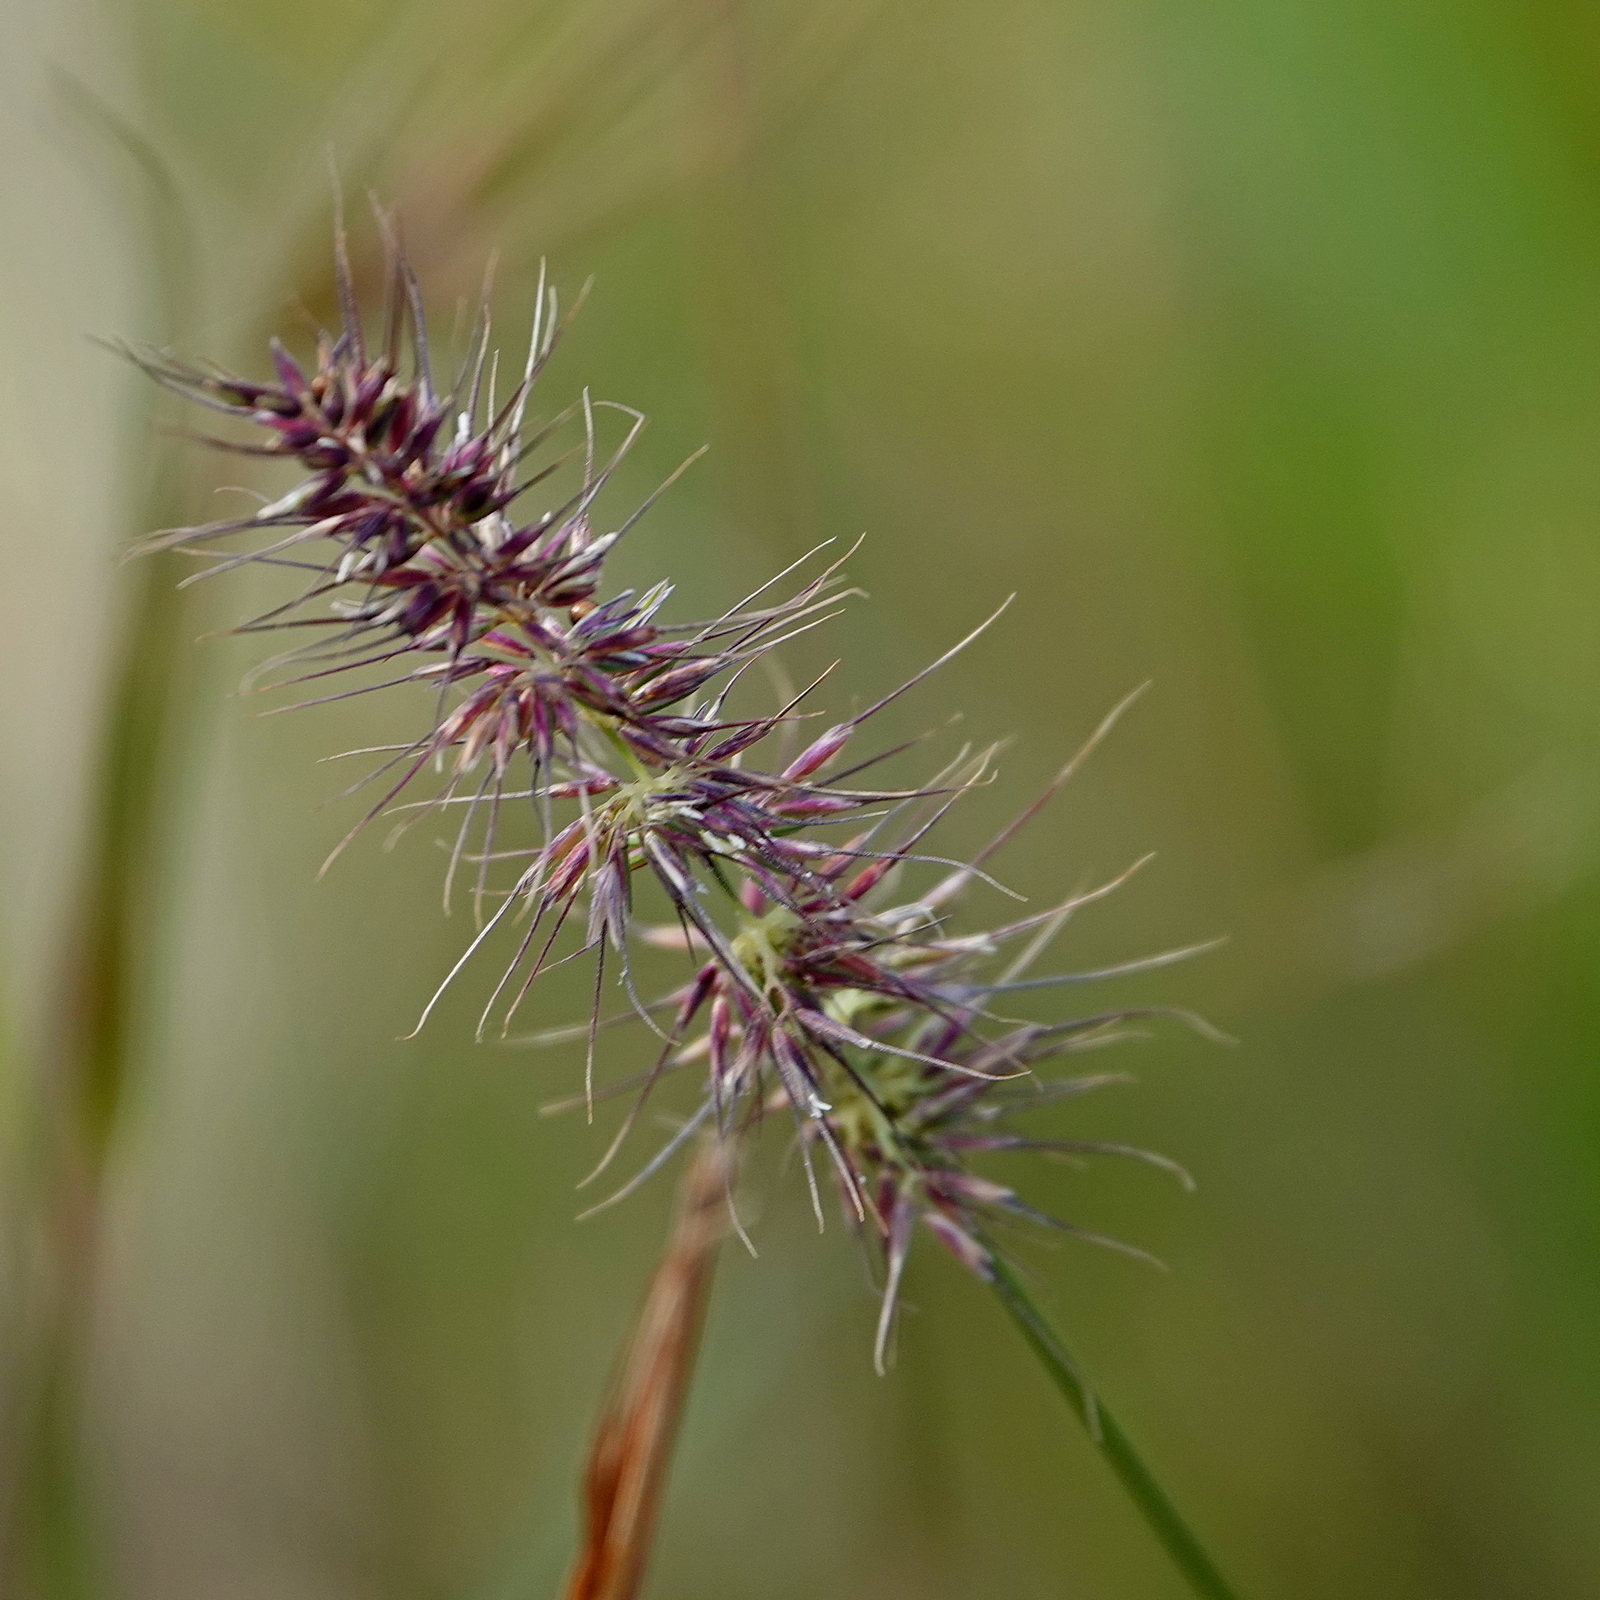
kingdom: Plantae
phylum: Tracheophyta
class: Liliopsida
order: Poales
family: Poaceae
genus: Echinopogon
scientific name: Echinopogon caespitosus
